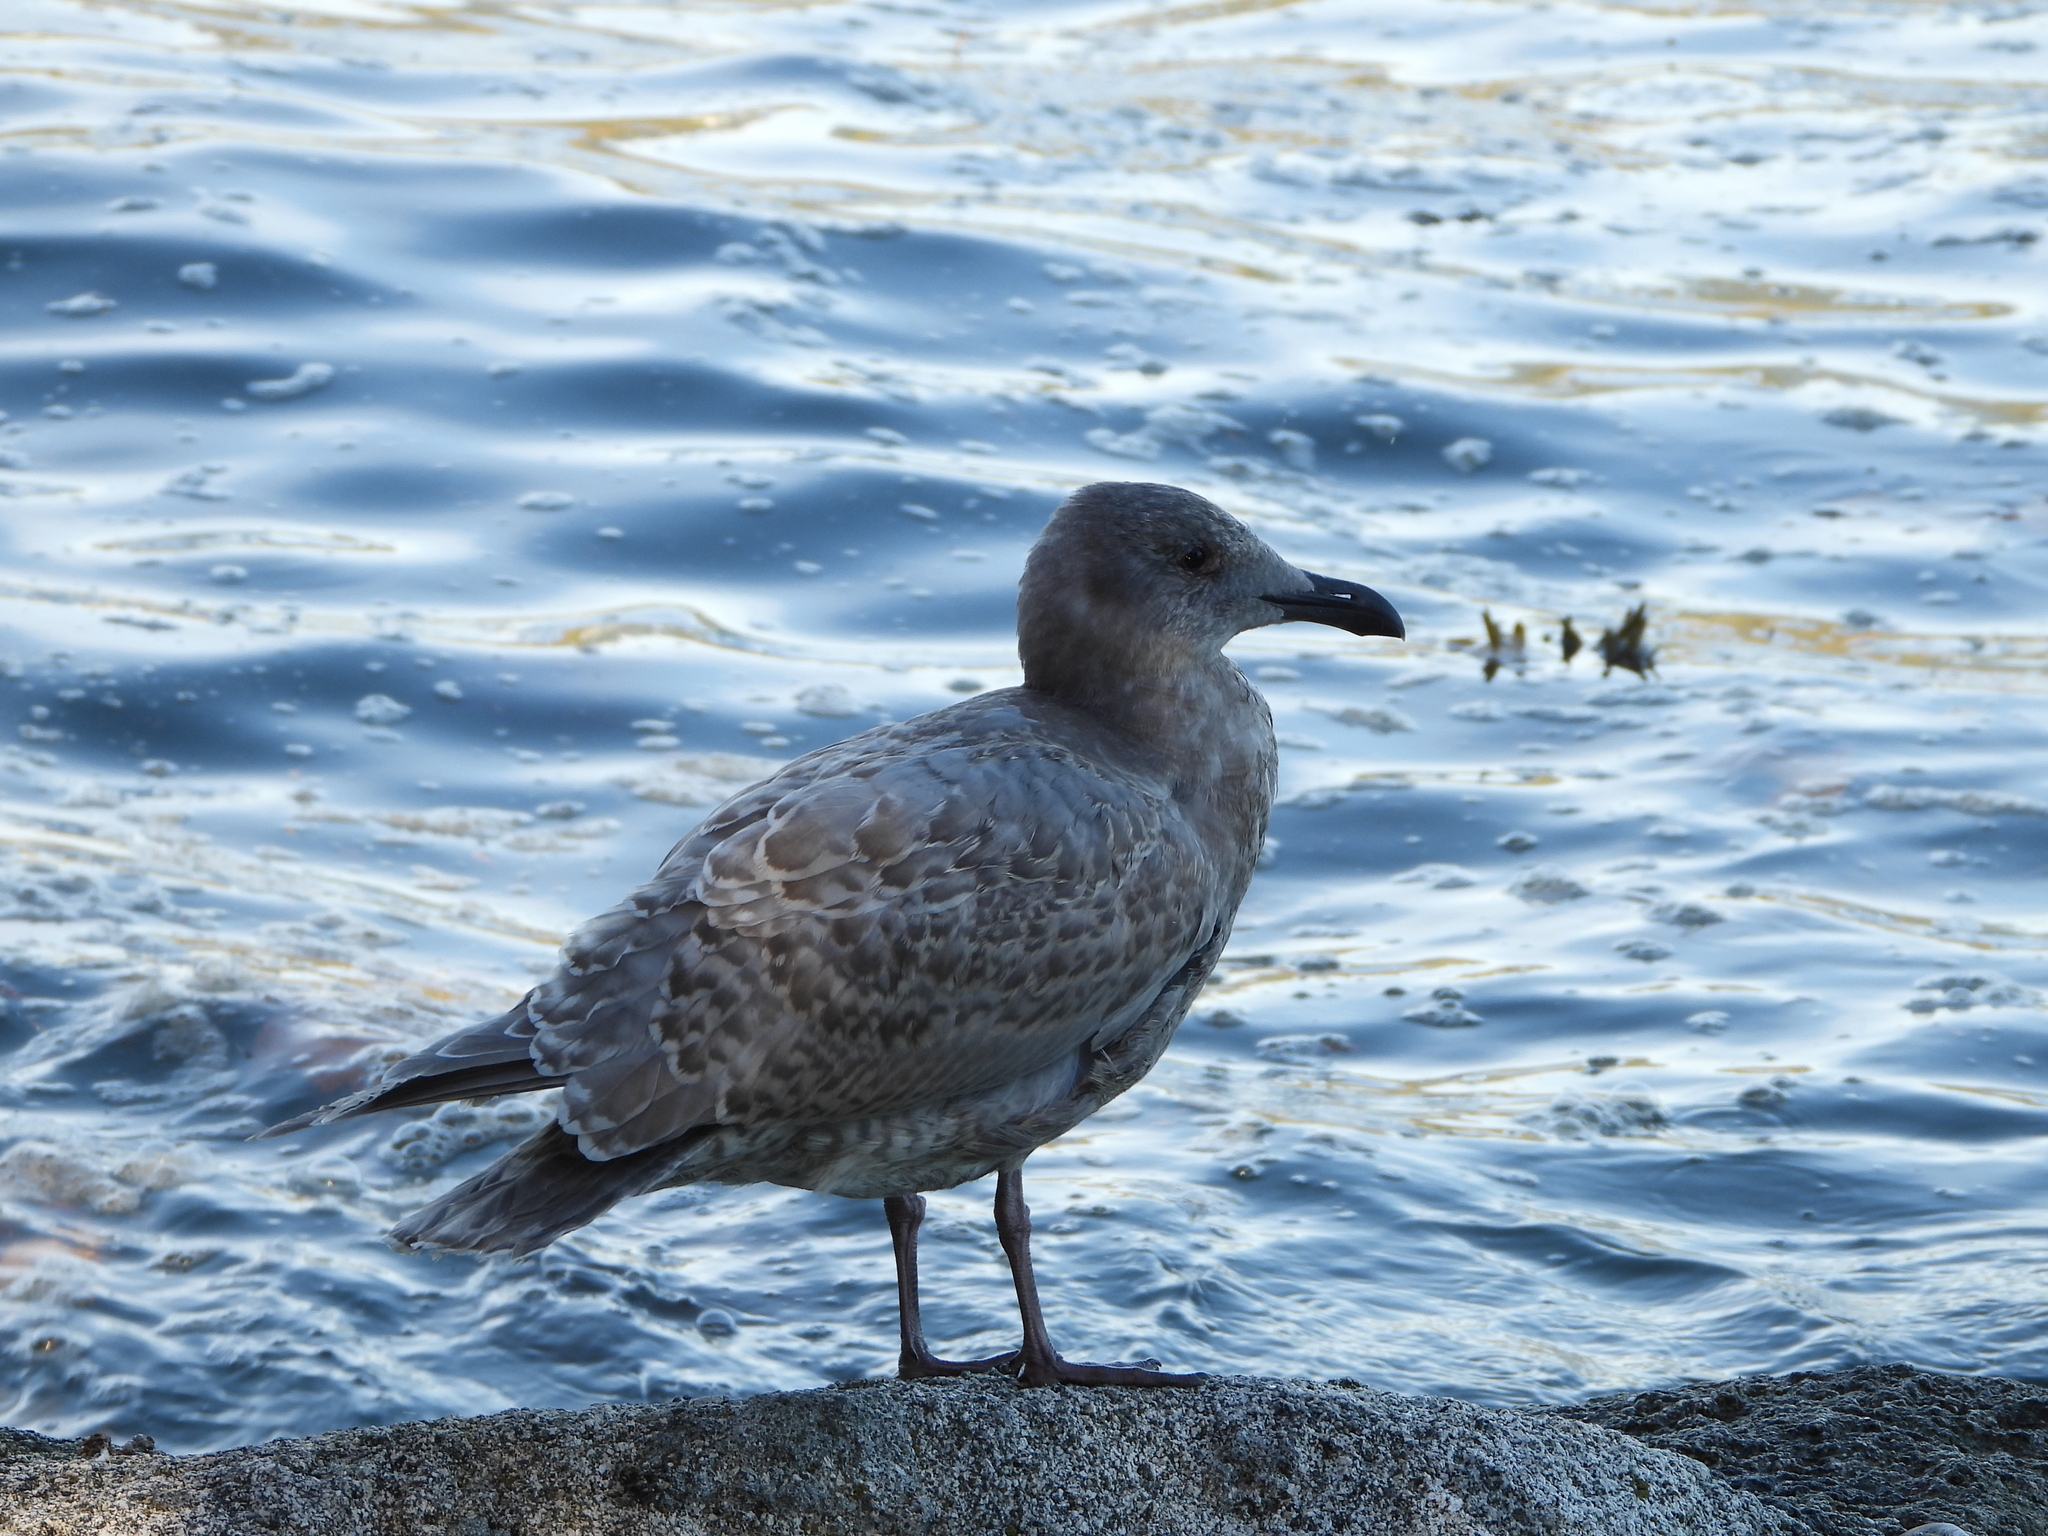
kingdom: Animalia
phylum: Chordata
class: Aves
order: Charadriiformes
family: Laridae
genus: Larus
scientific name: Larus glaucescens
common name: Glaucous-winged gull
